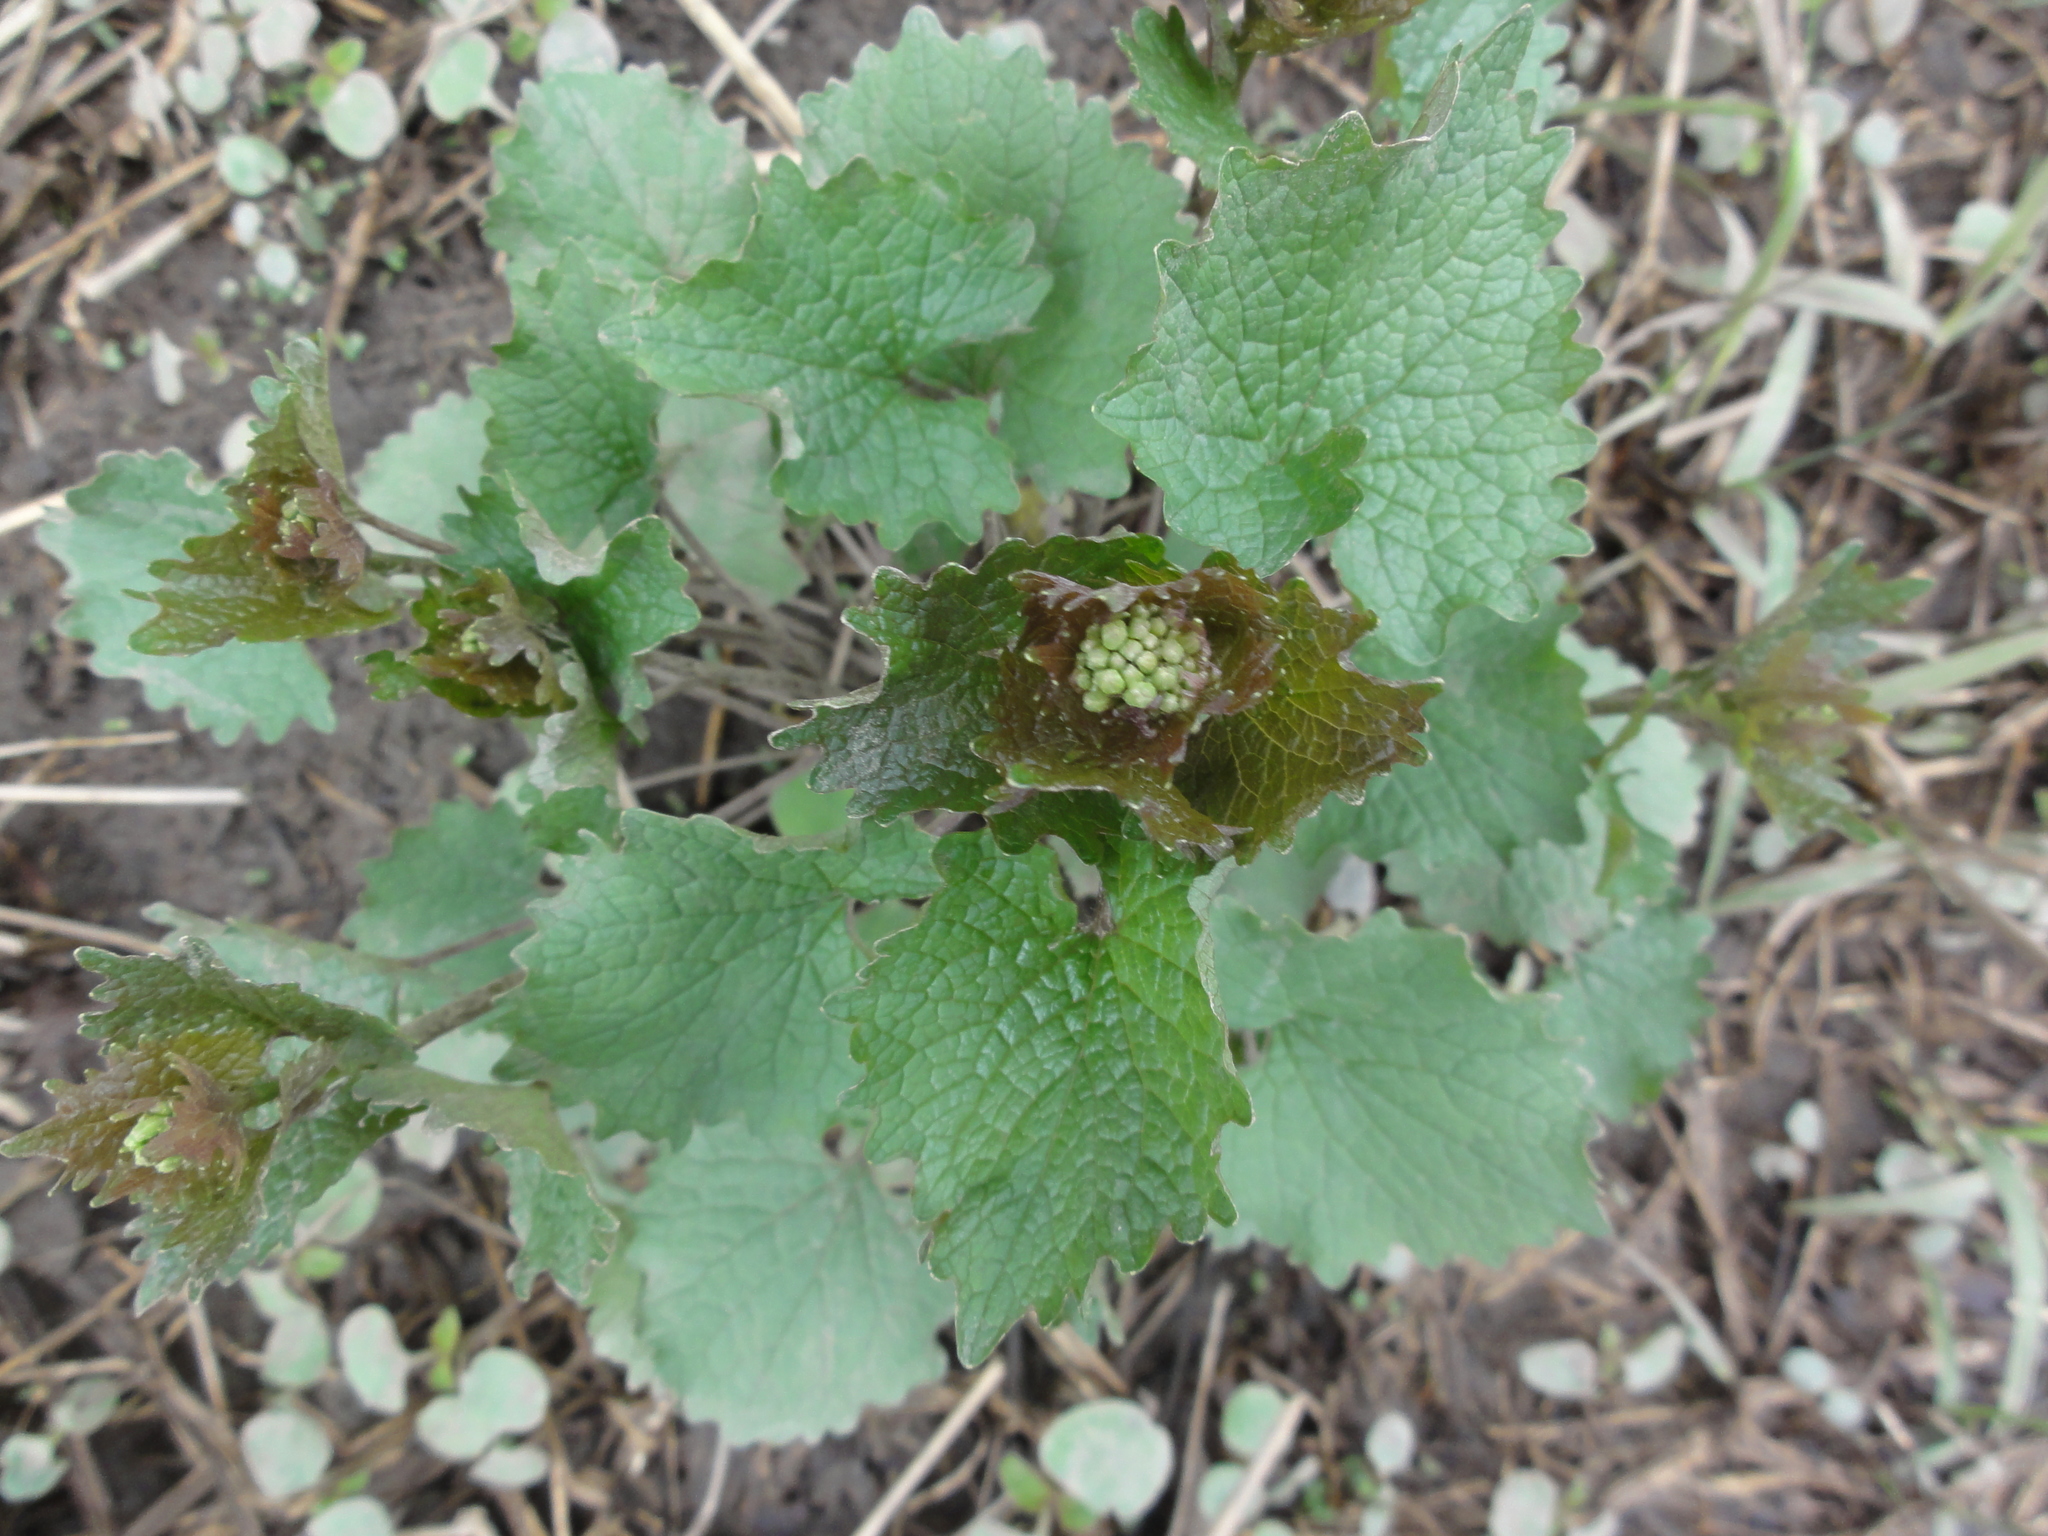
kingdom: Plantae
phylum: Tracheophyta
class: Magnoliopsida
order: Brassicales
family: Brassicaceae
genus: Alliaria
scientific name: Alliaria petiolata
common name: Garlic mustard
